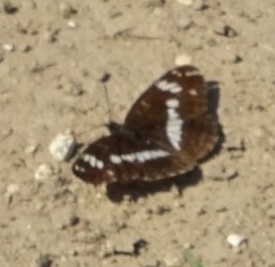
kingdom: Animalia
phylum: Arthropoda
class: Insecta
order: Lepidoptera
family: Nymphalidae
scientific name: Nymphalidae
